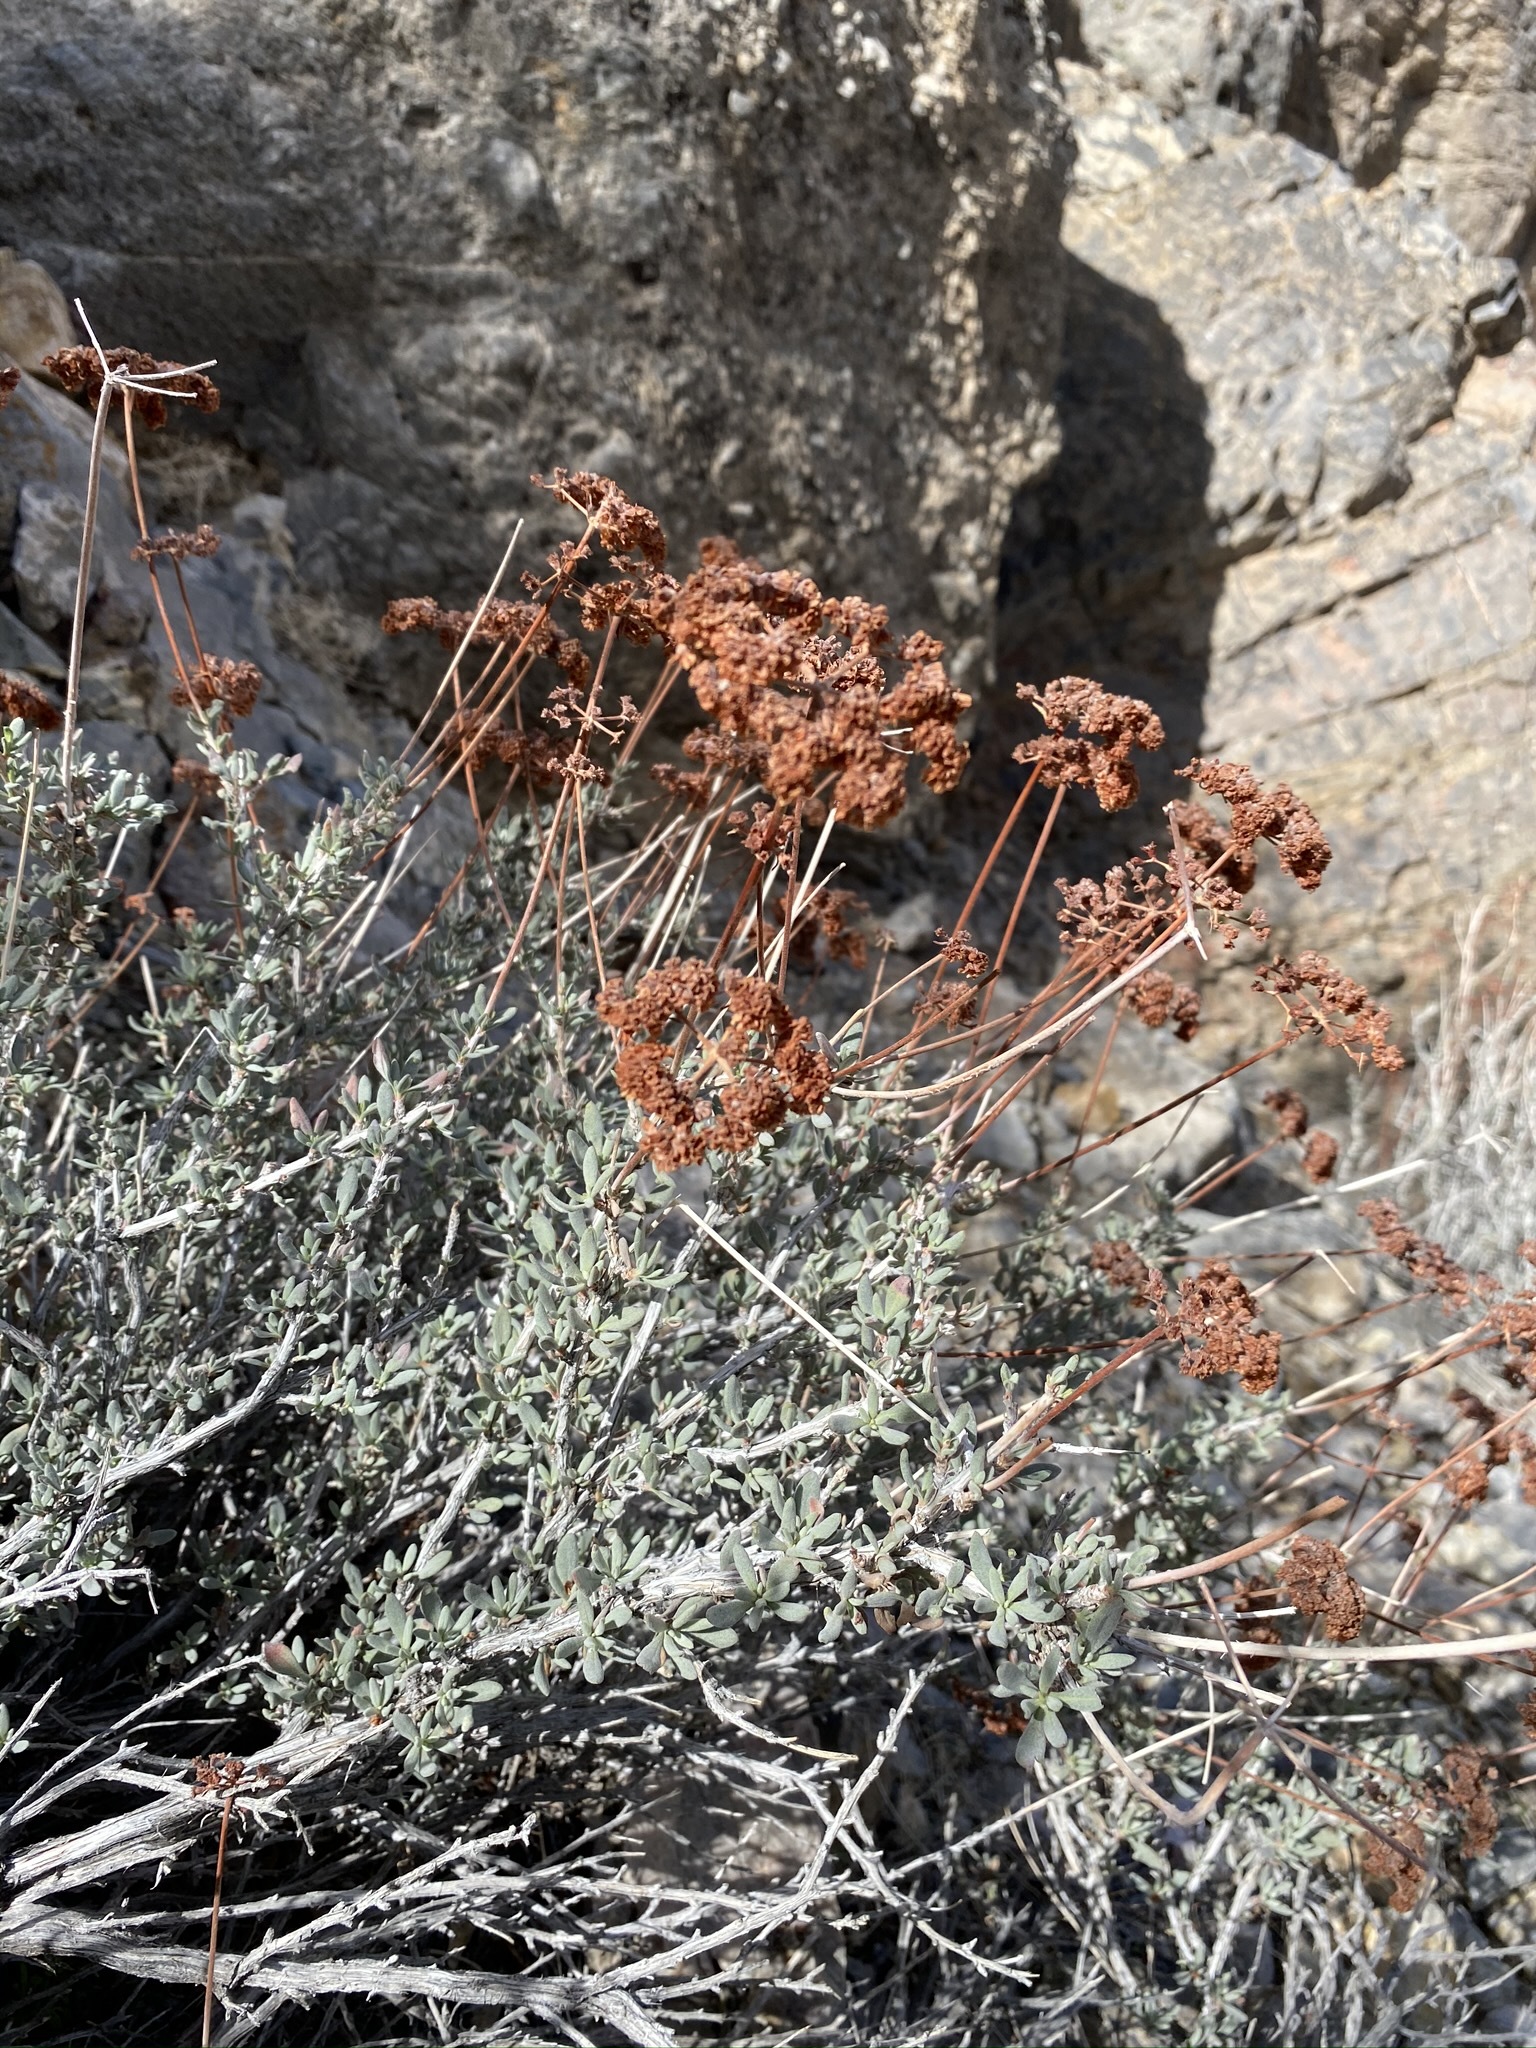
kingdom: Plantae
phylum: Tracheophyta
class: Magnoliopsida
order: Caryophyllales
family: Polygonaceae
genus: Eriogonum
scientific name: Eriogonum fasciculatum
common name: California wild buckwheat
